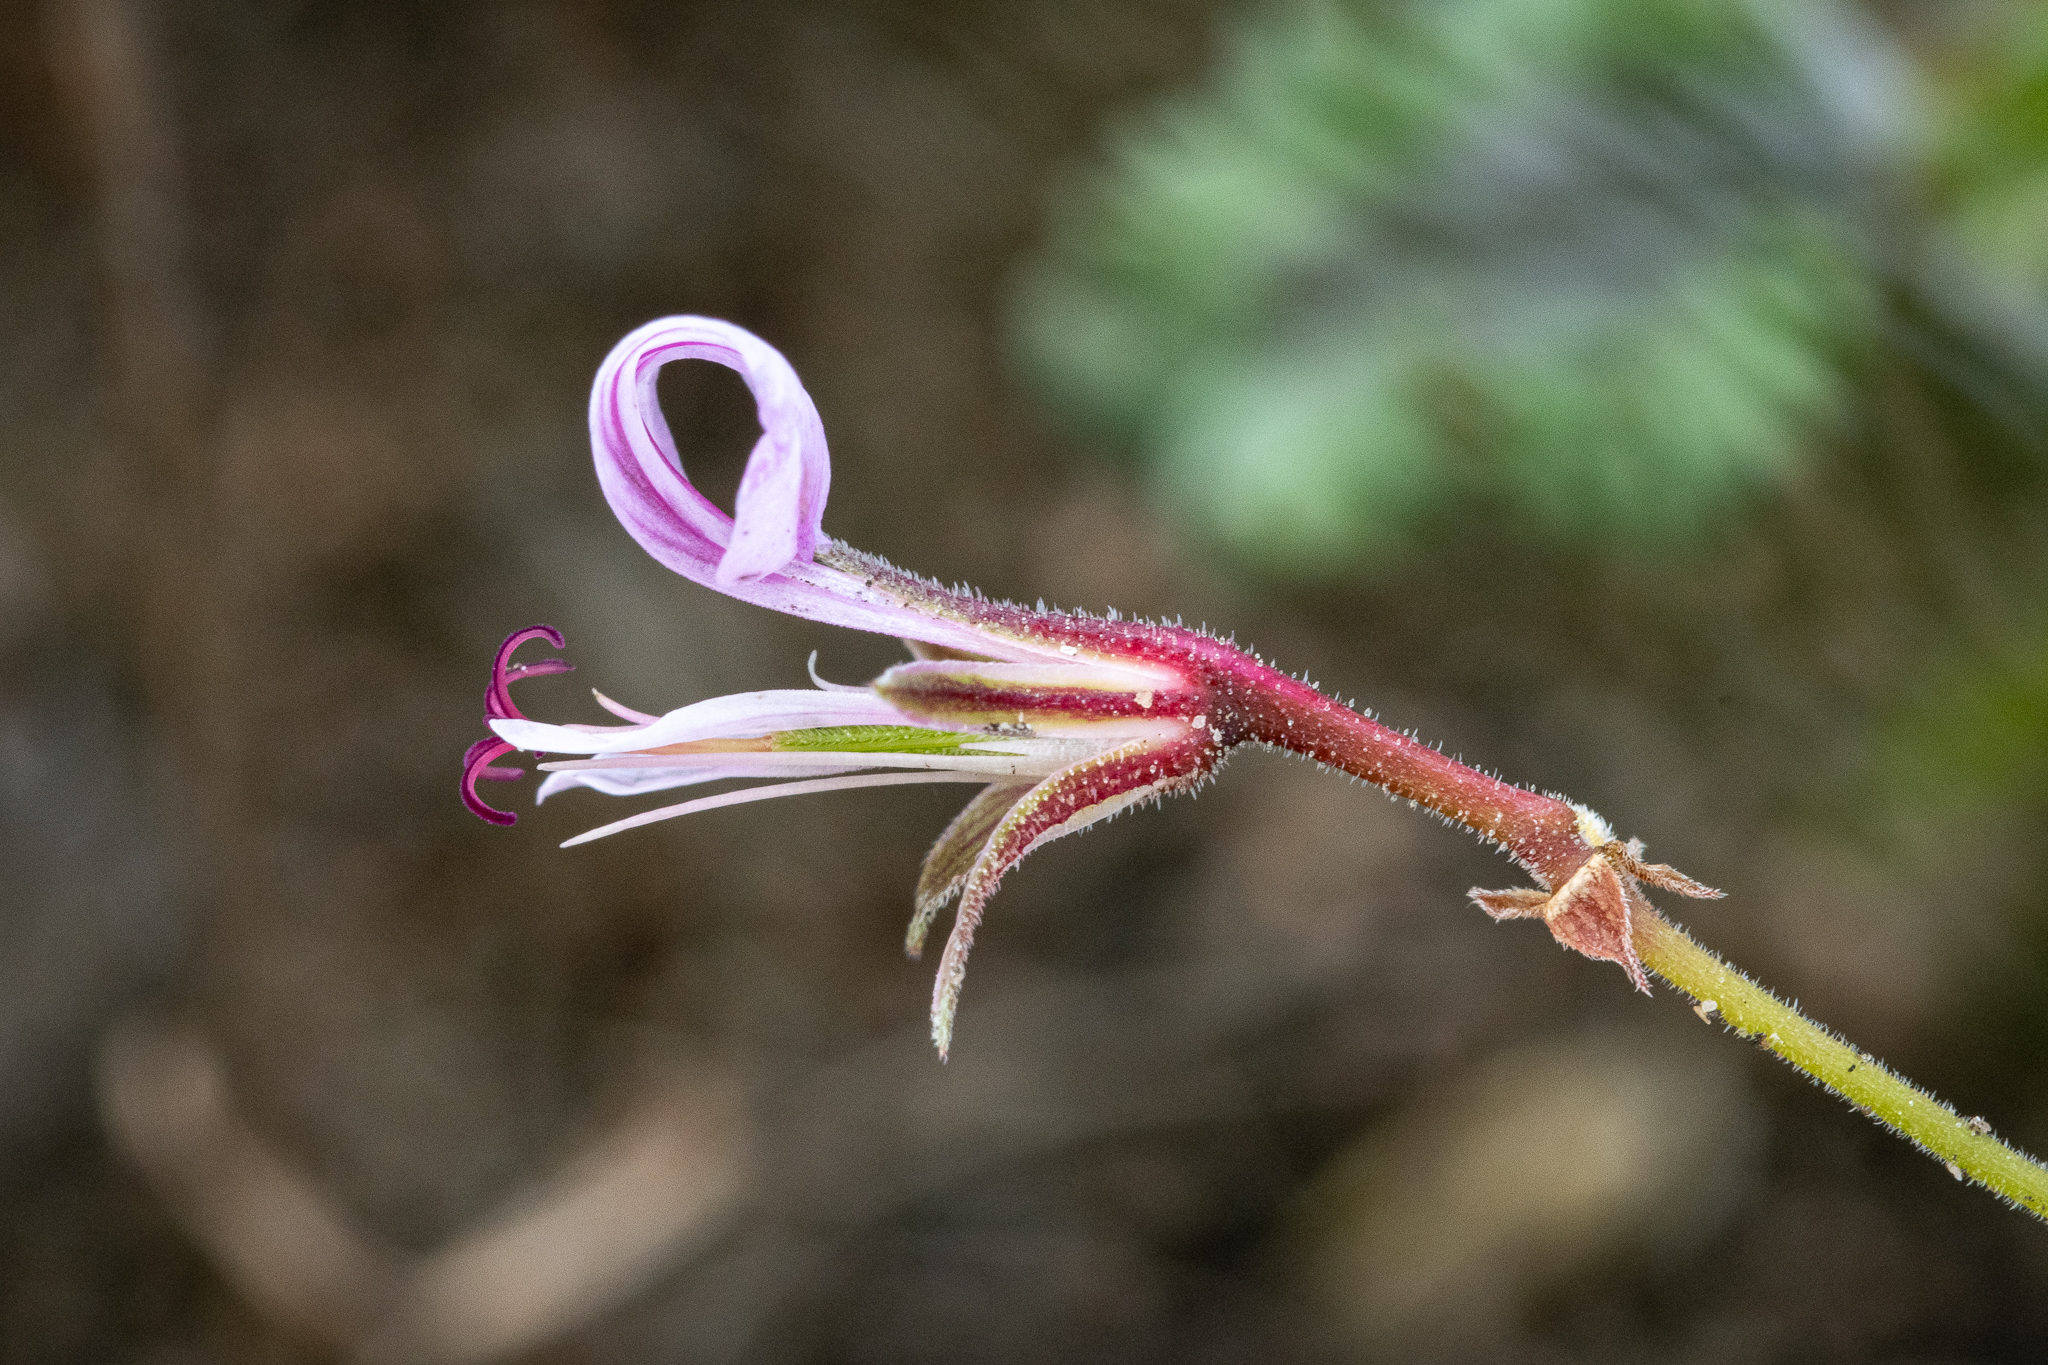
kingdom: Plantae
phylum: Tracheophyta
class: Magnoliopsida
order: Geraniales
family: Geraniaceae
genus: Pelargonium
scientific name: Pelargonium candicans
